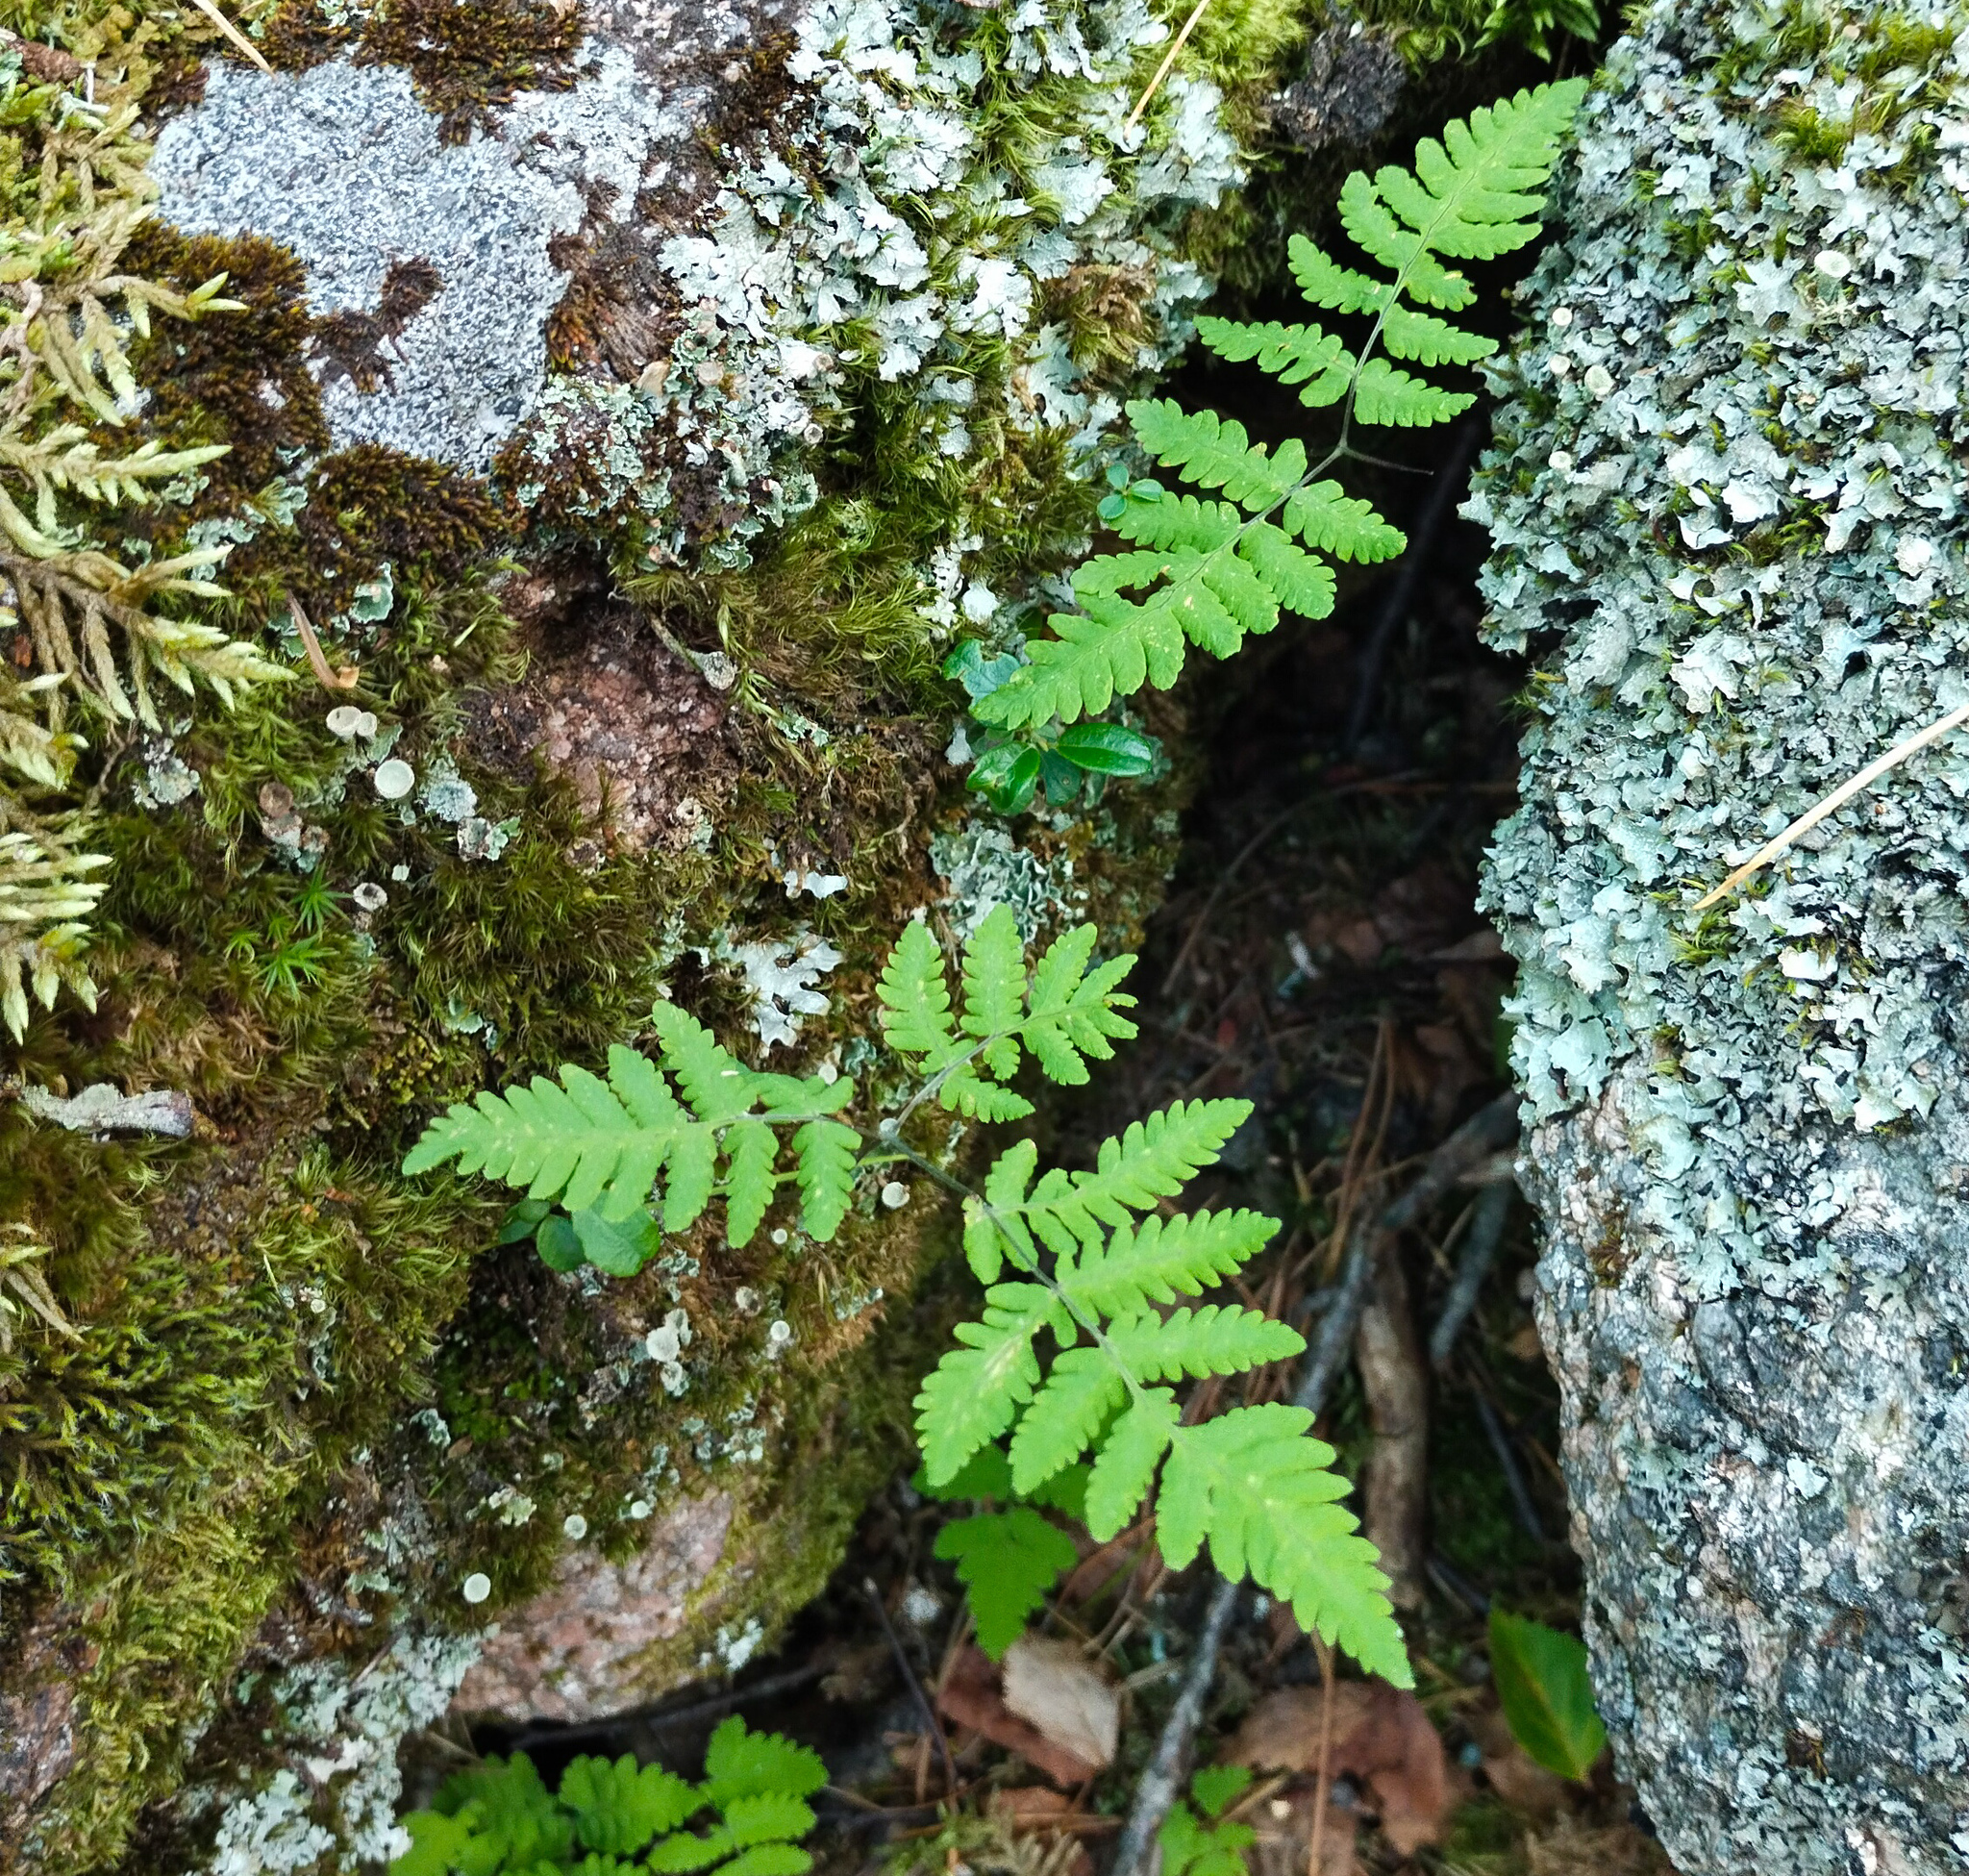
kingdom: Plantae
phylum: Tracheophyta
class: Polypodiopsida
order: Polypodiales
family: Cystopteridaceae
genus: Gymnocarpium
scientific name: Gymnocarpium jessoense
